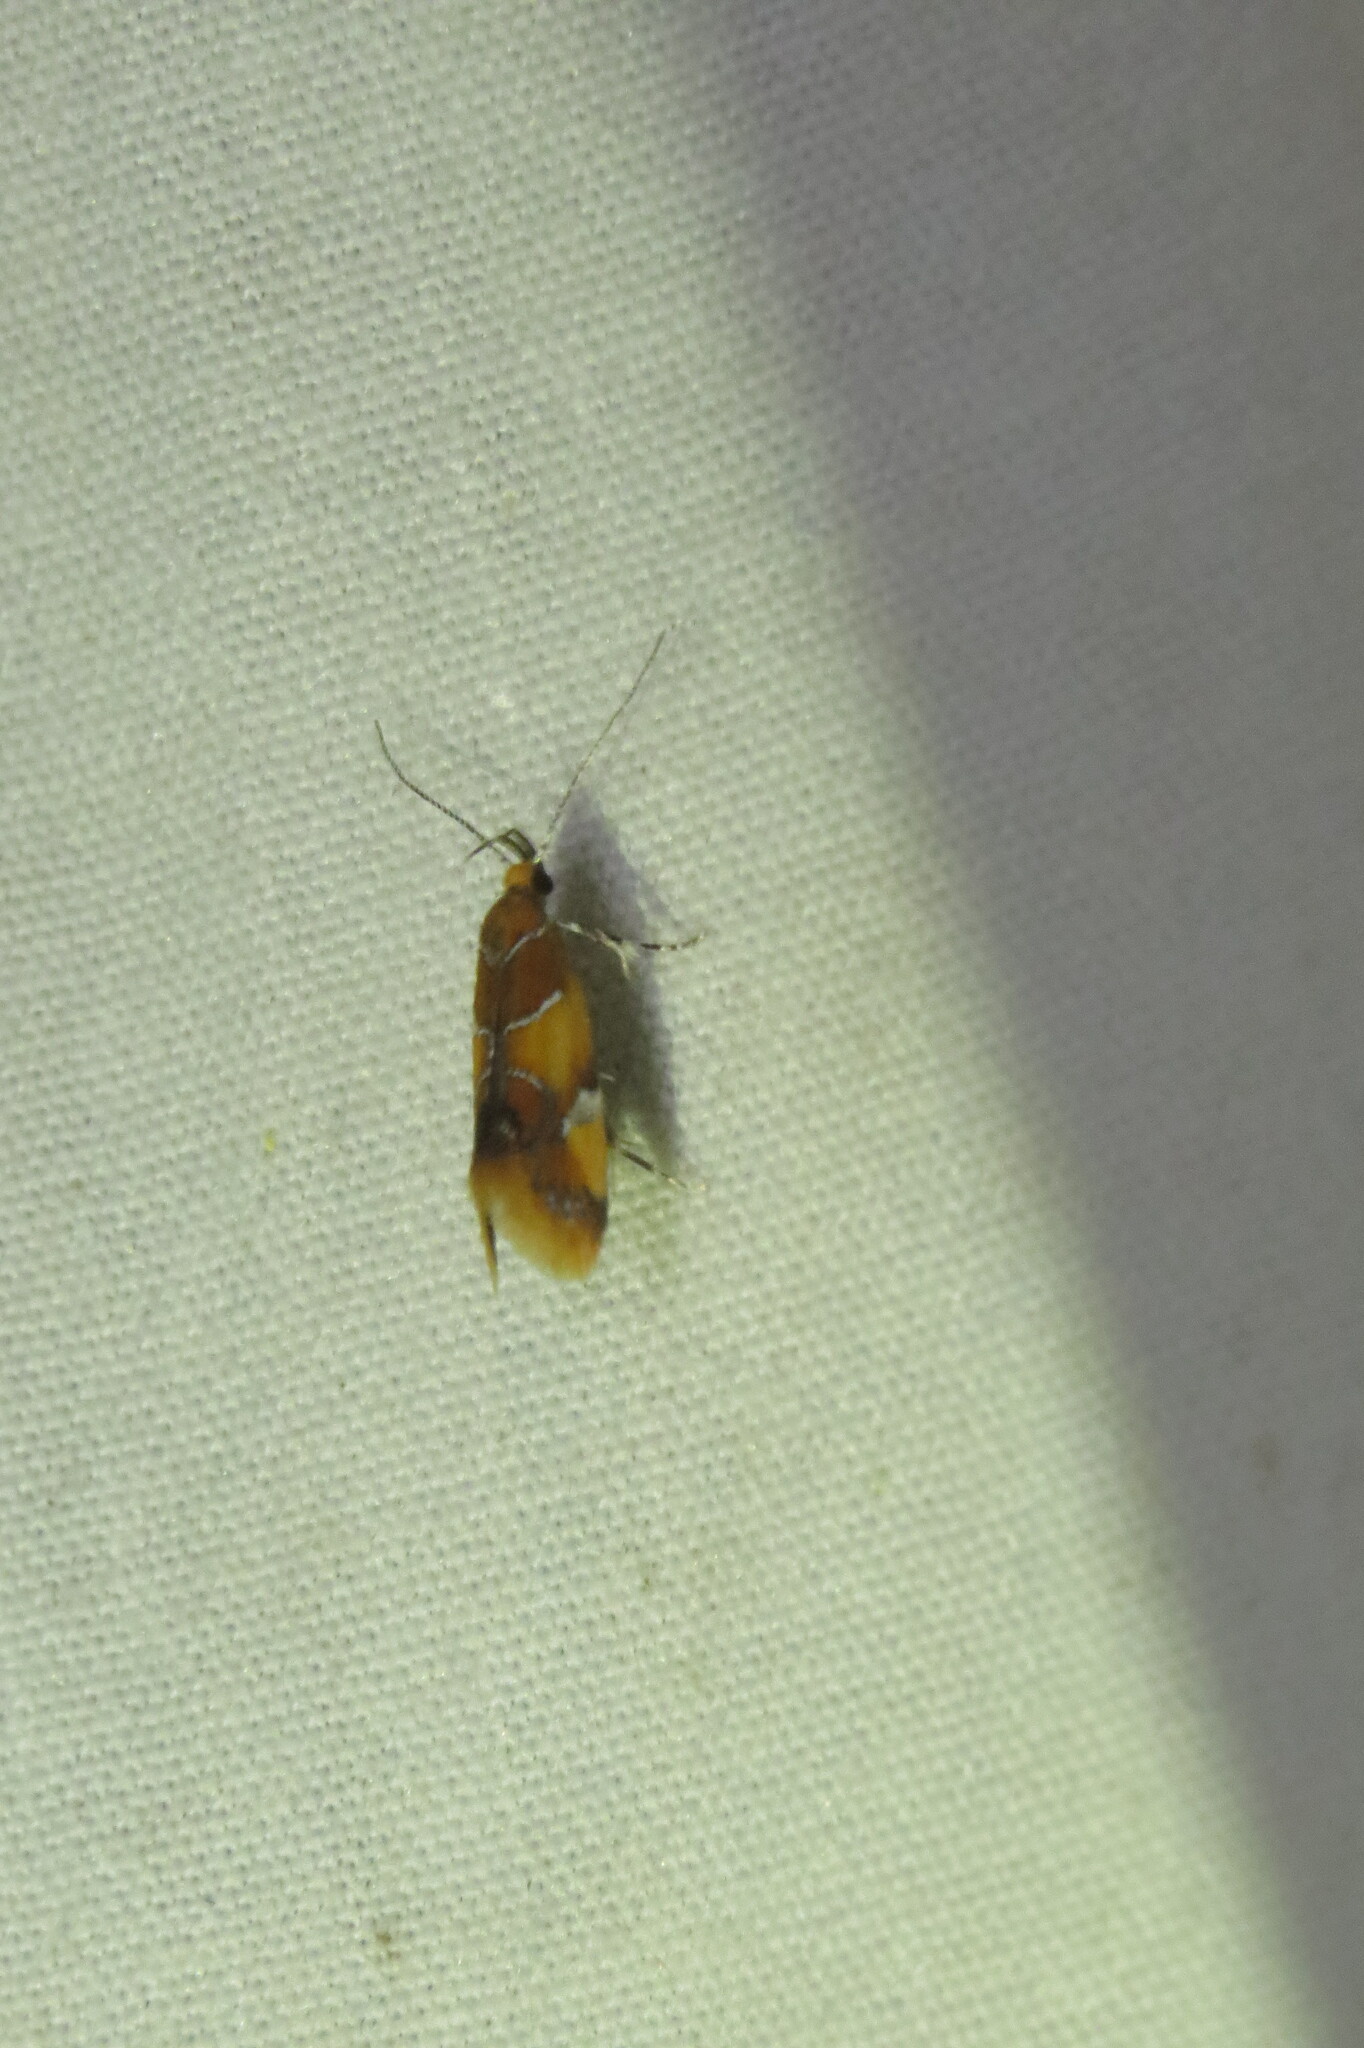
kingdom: Animalia
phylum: Arthropoda
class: Insecta
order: Lepidoptera
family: Oecophoridae
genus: Callima
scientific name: Callima argenticinctella
